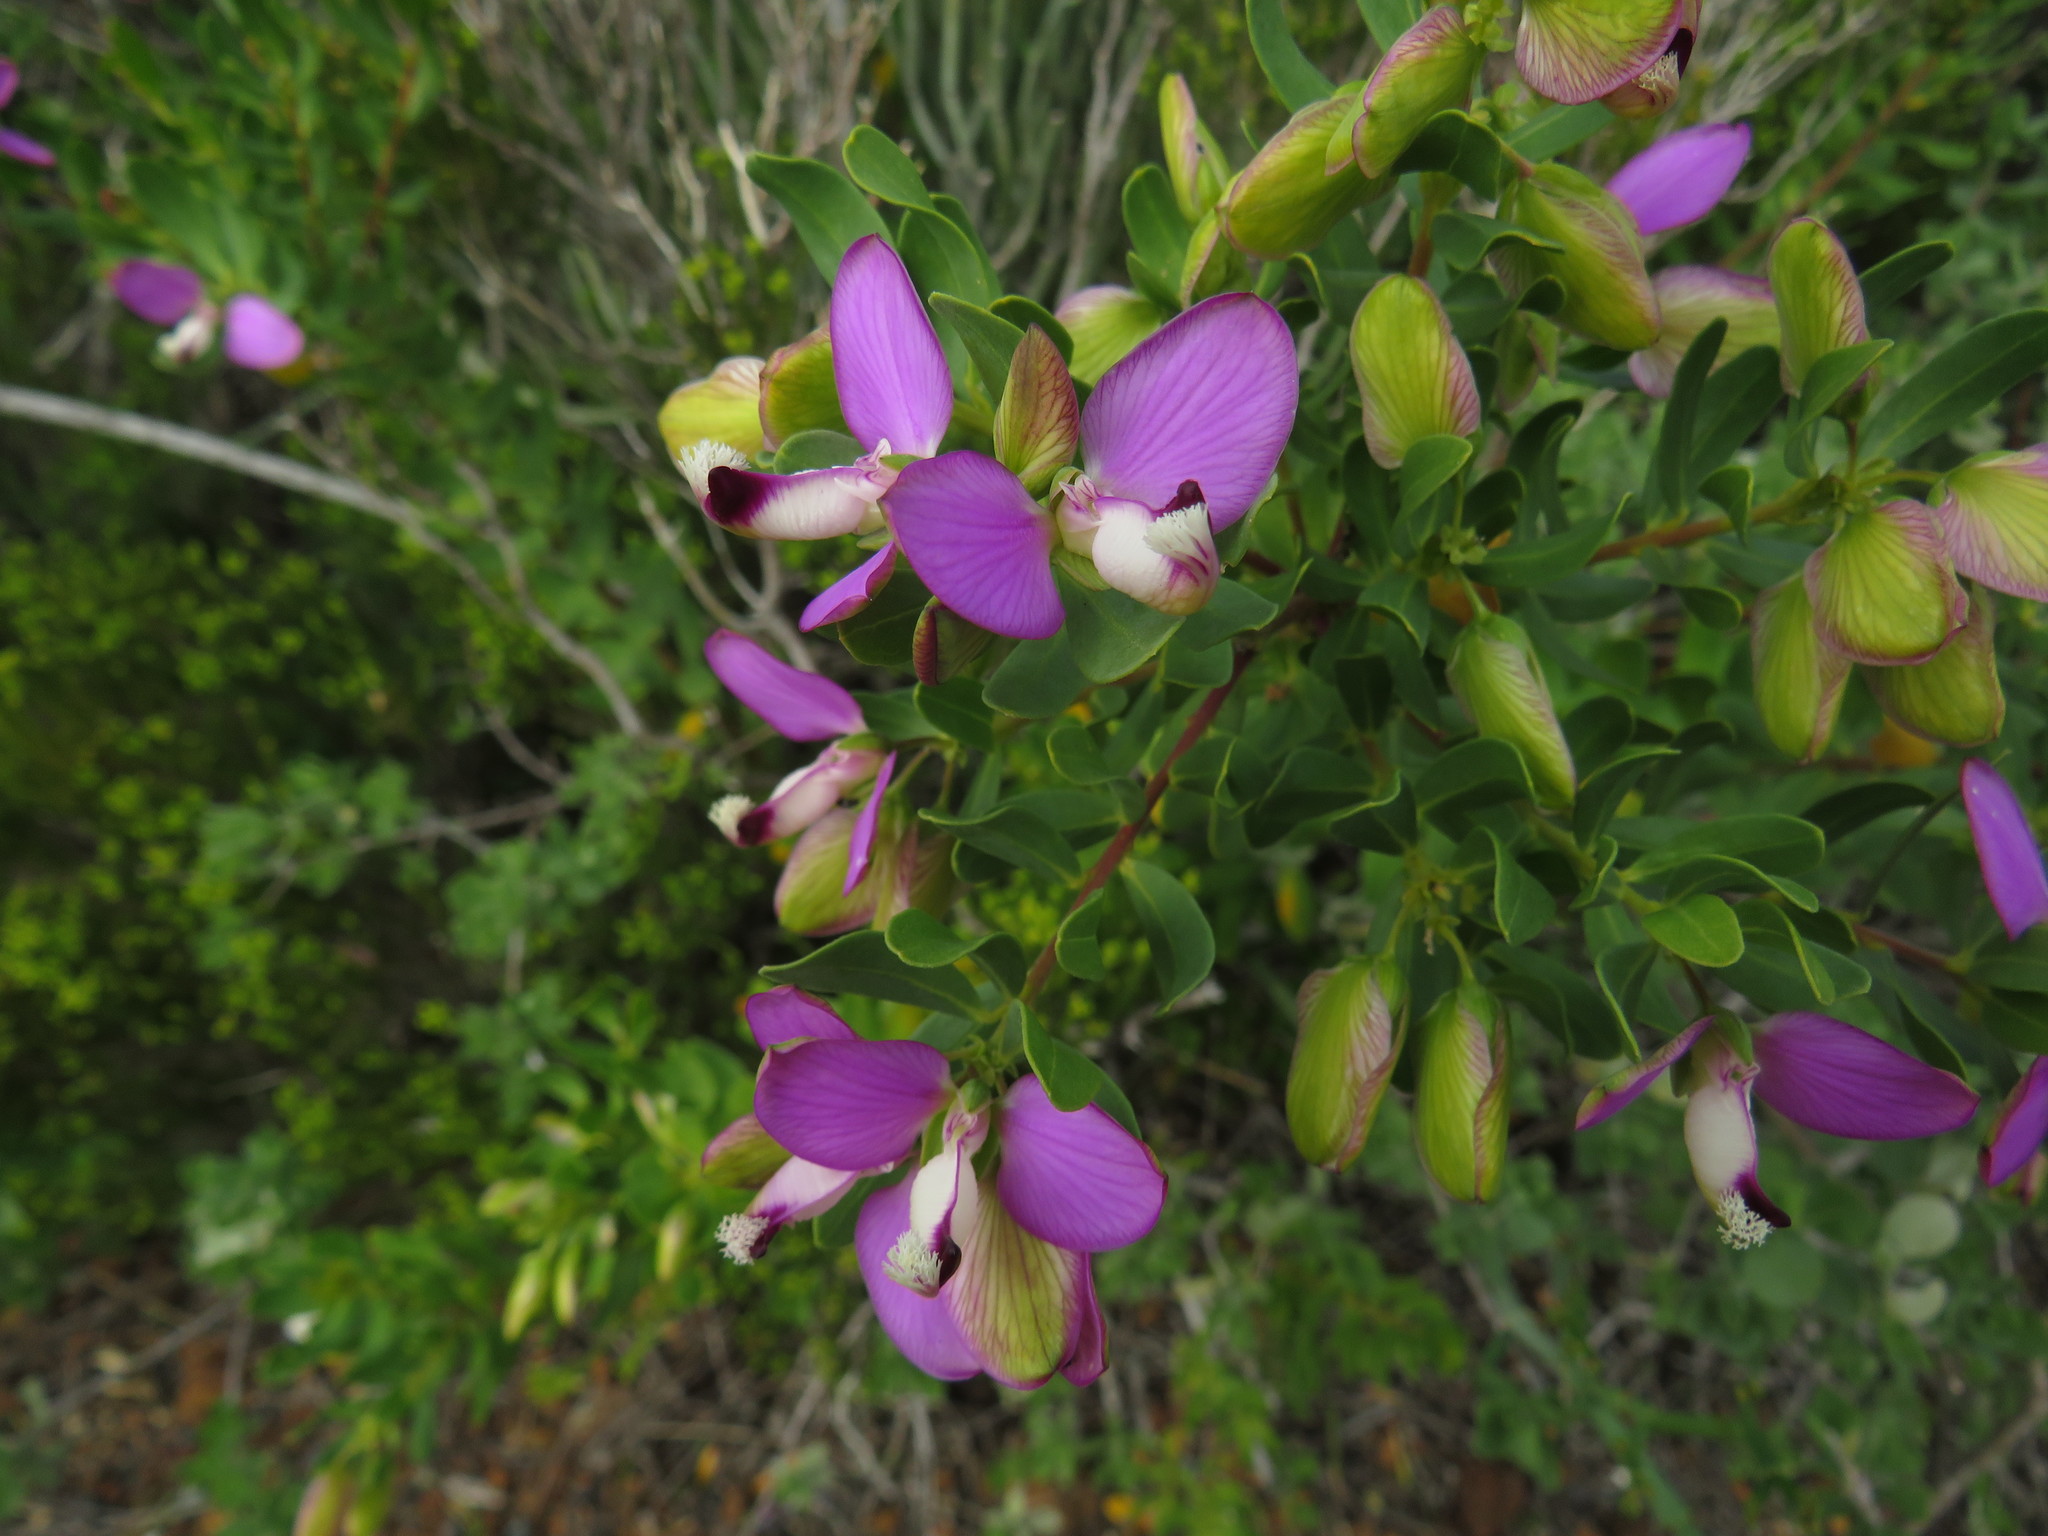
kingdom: Plantae
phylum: Tracheophyta
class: Magnoliopsida
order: Fabales
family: Polygalaceae
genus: Polygala
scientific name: Polygala myrtifolia
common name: Myrtle-leaf milkwort
